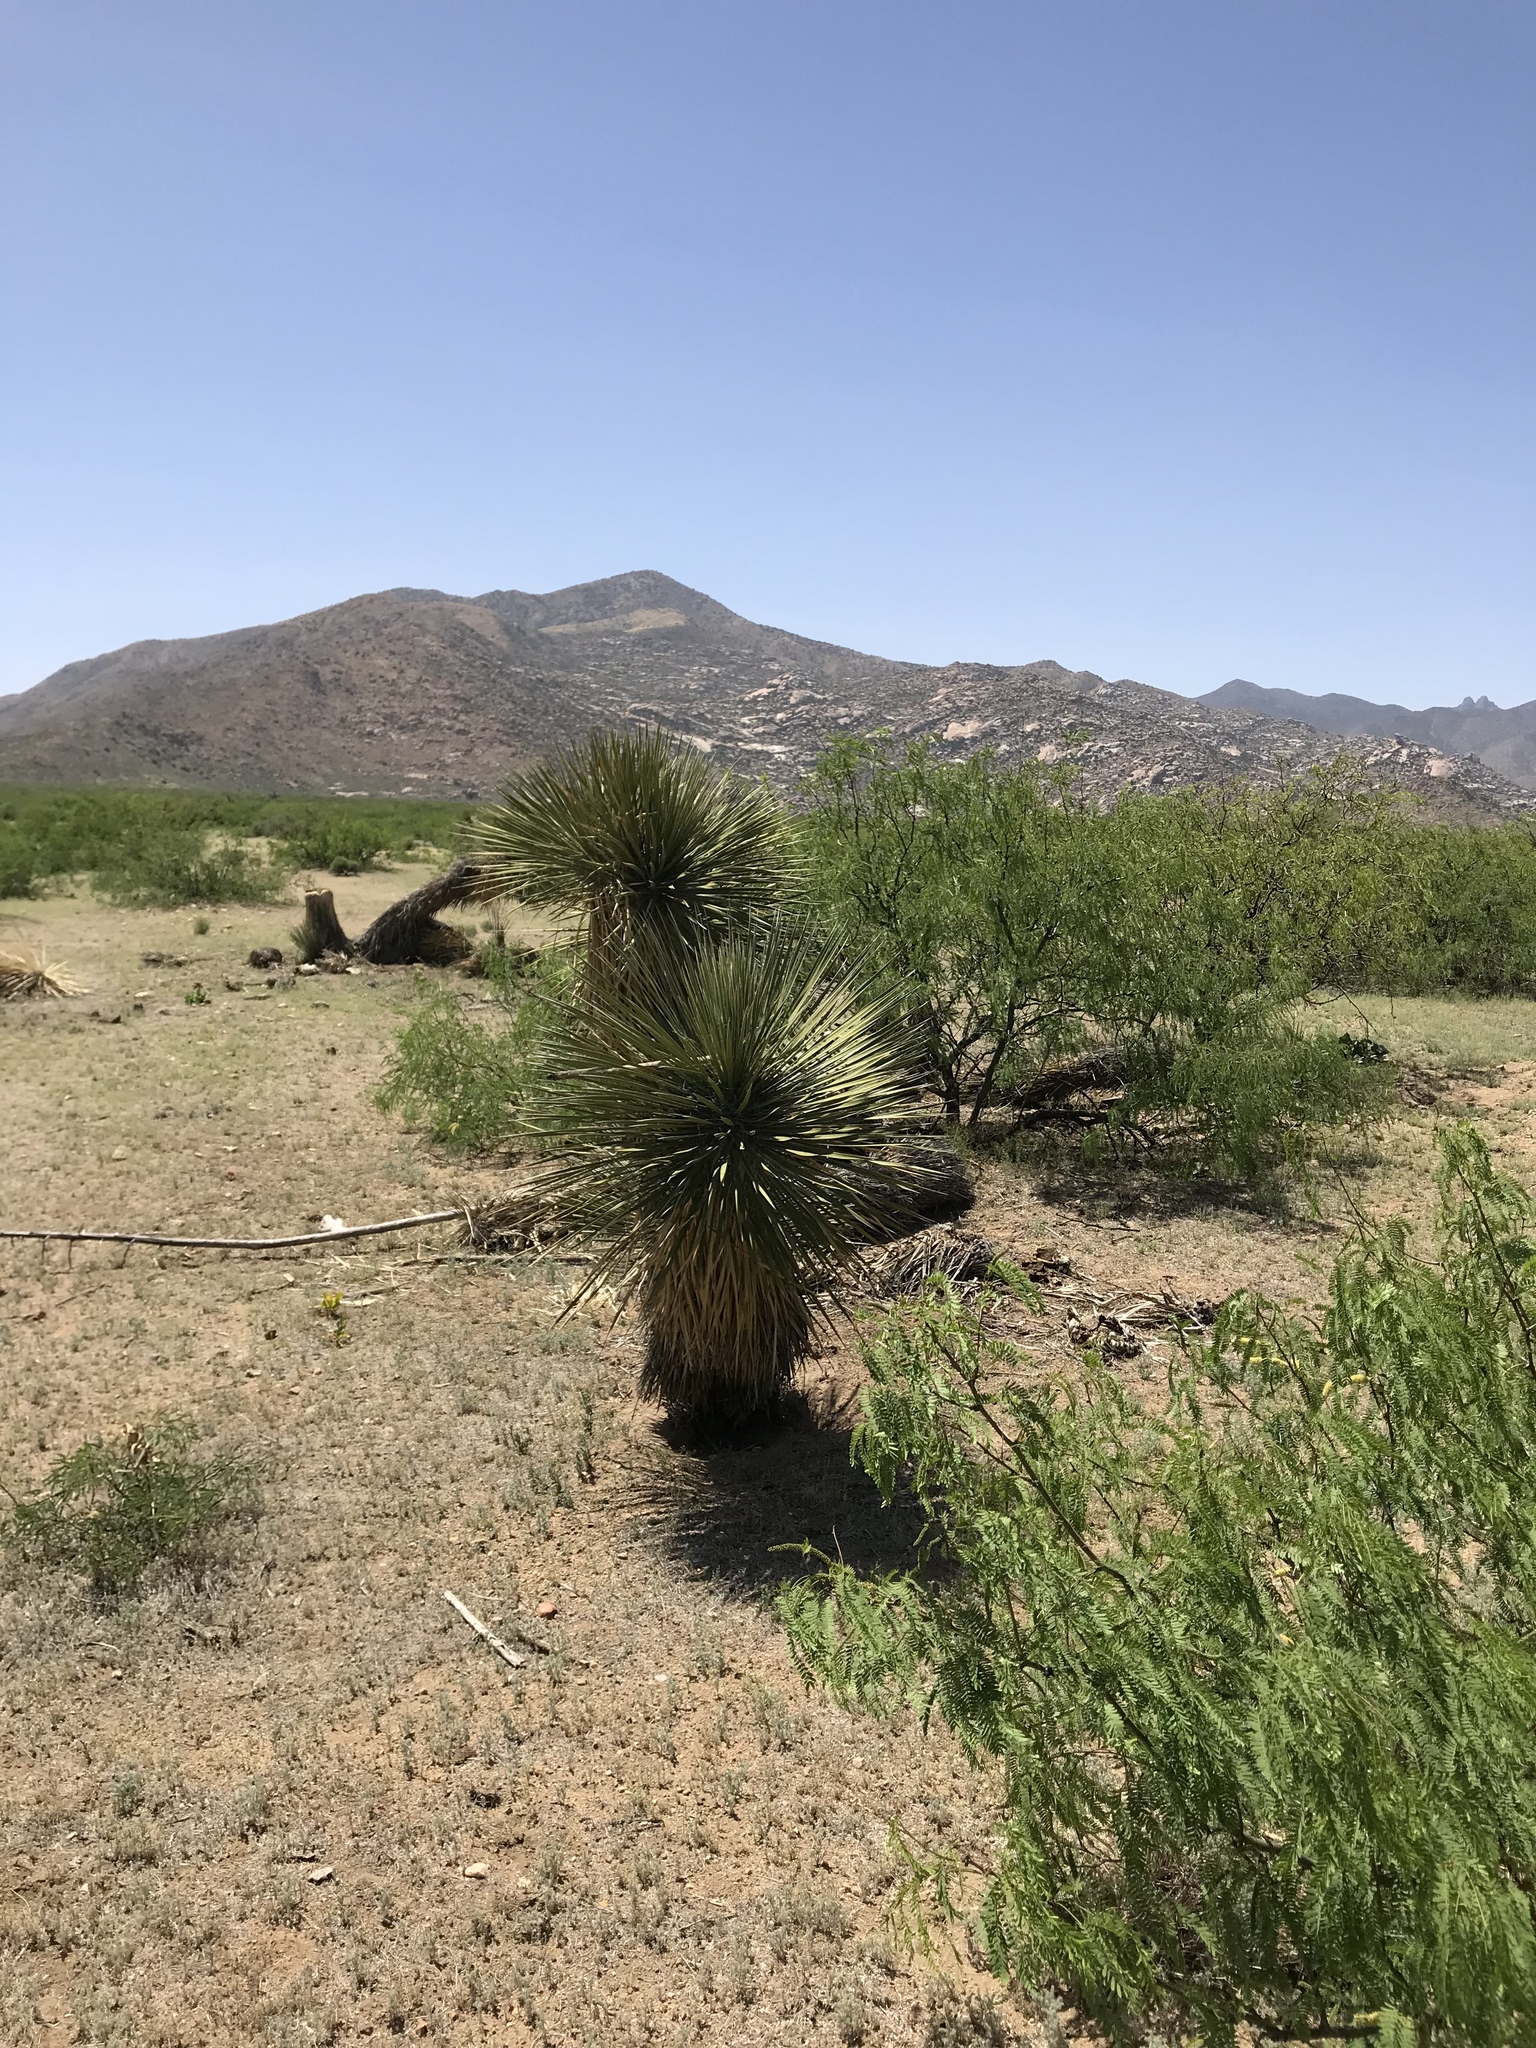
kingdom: Plantae
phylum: Tracheophyta
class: Liliopsida
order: Asparagales
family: Asparagaceae
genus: Yucca
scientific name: Yucca elata
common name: Palmella
